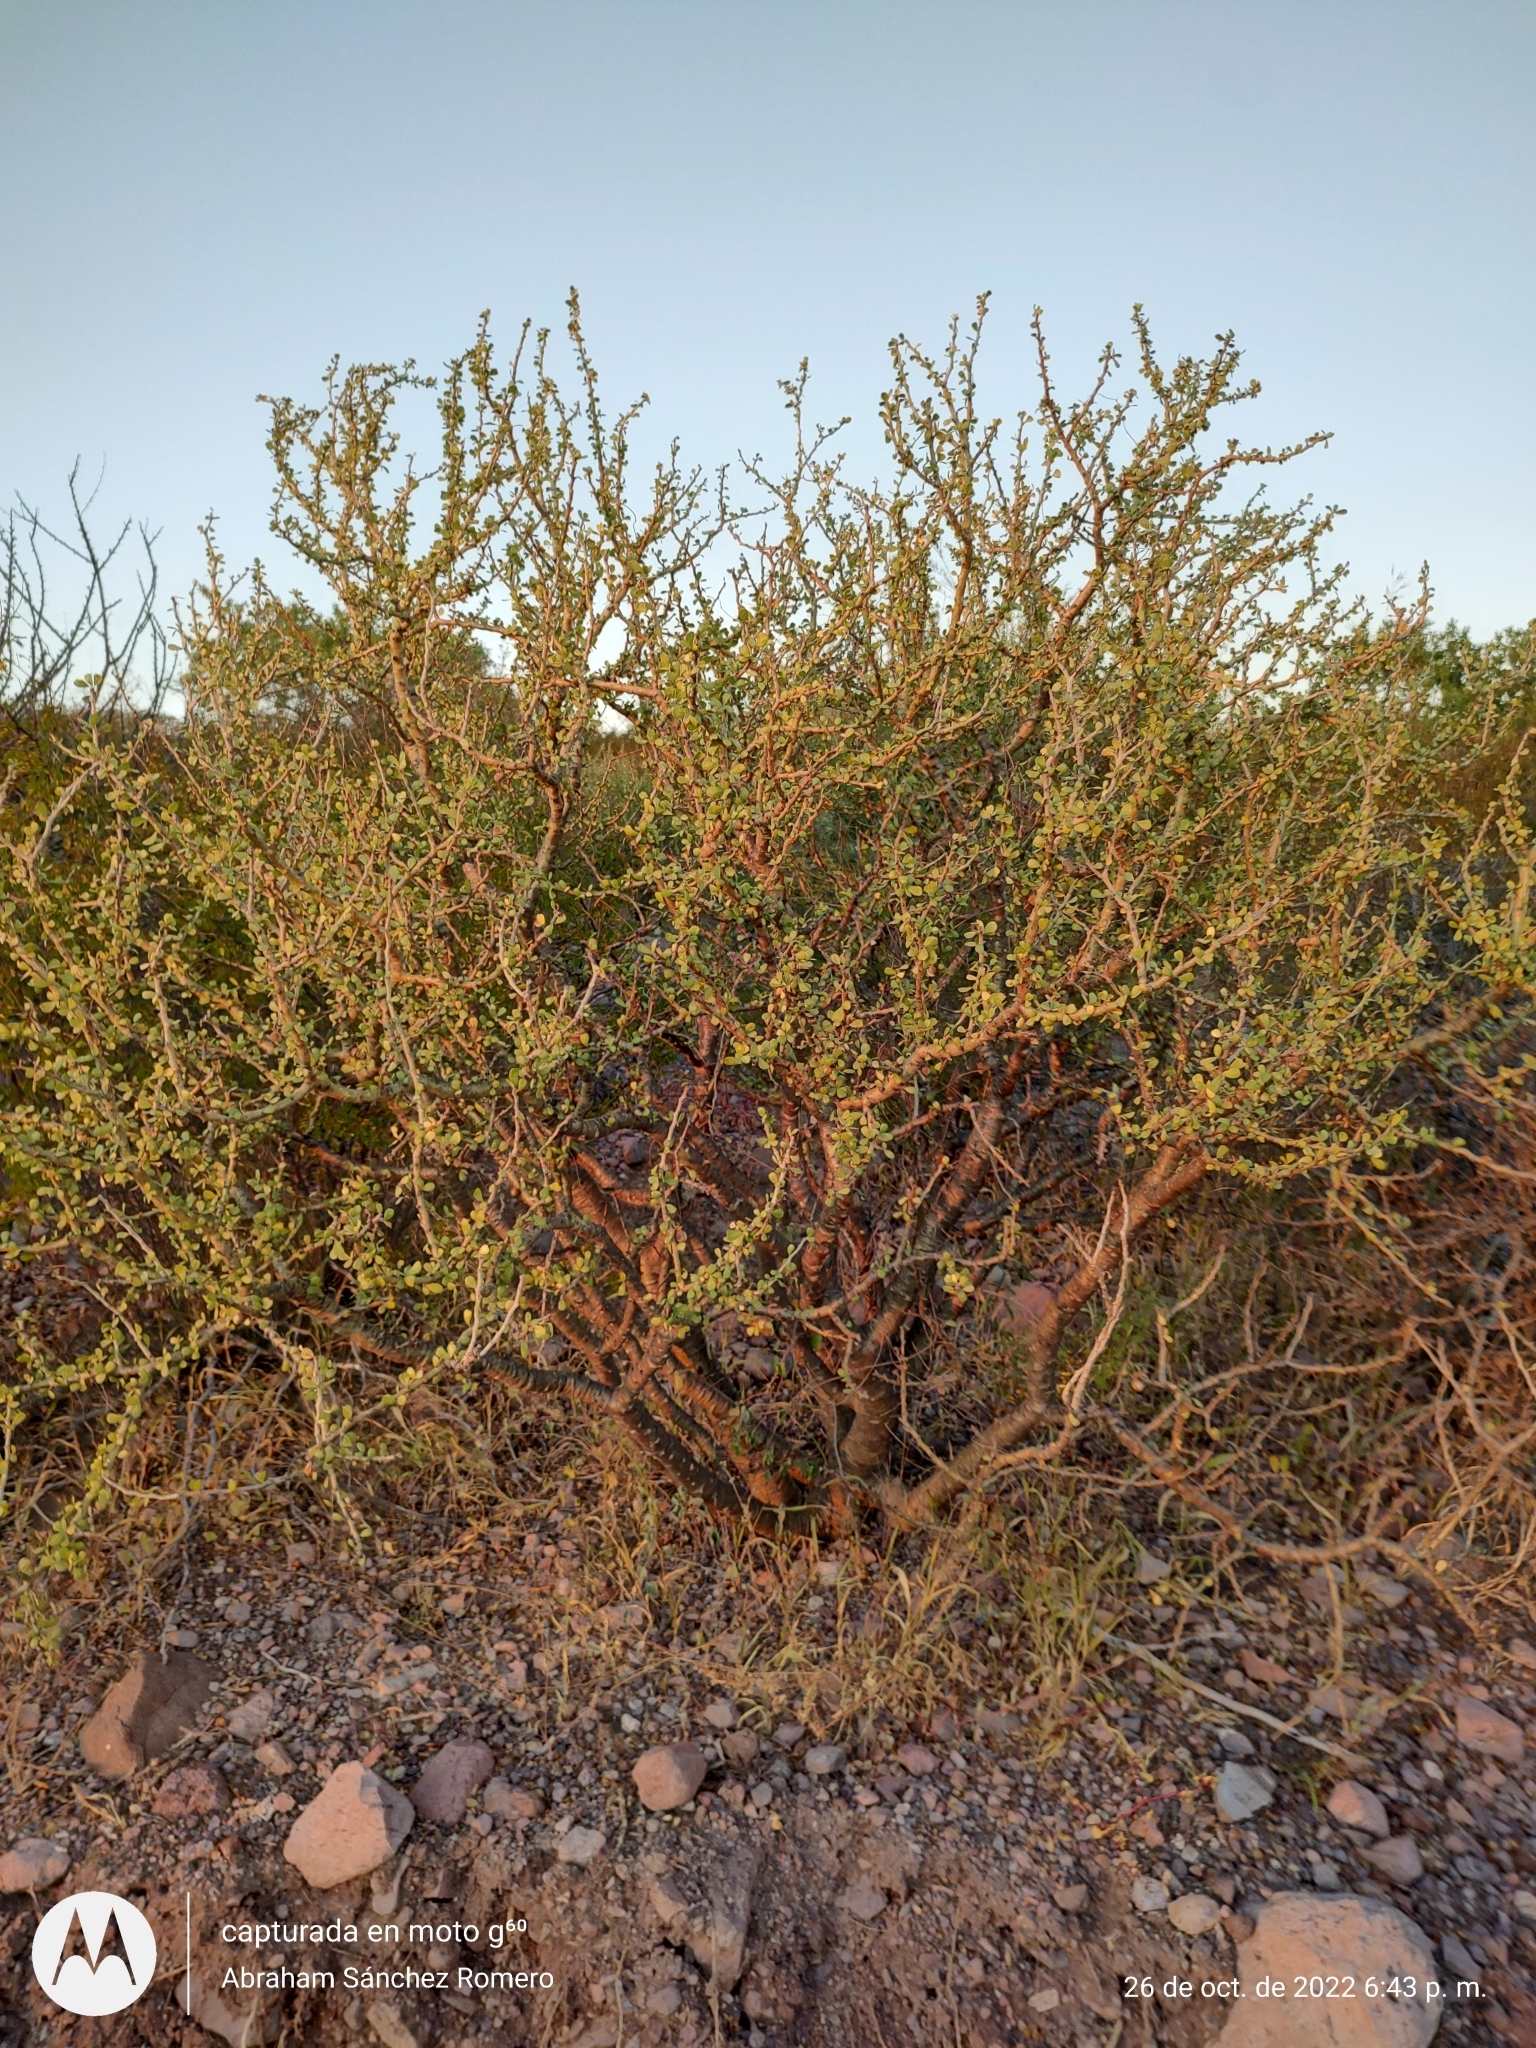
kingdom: Plantae
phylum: Tracheophyta
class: Magnoliopsida
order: Malpighiales
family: Euphorbiaceae
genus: Jatropha
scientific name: Jatropha cuneata
